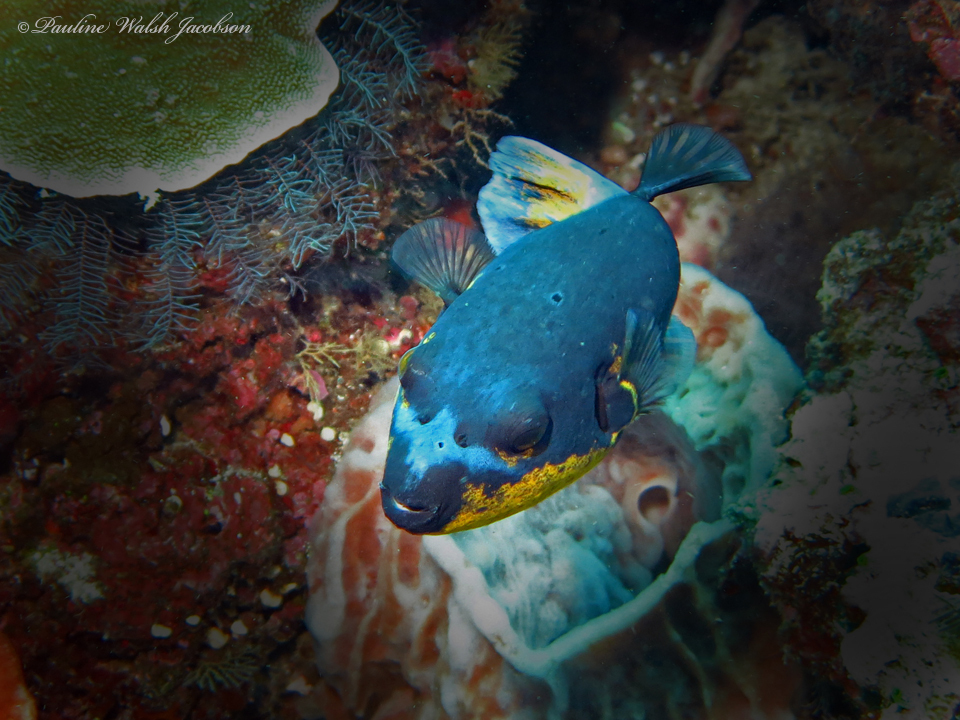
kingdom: Animalia
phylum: Chordata
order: Tetraodontiformes
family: Tetraodontidae
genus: Arothron
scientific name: Arothron nigropunctatus
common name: Black spotted blow fish
